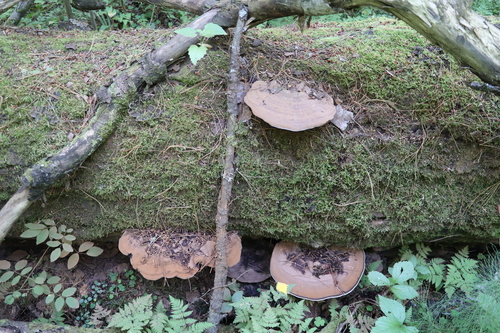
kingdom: Fungi
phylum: Basidiomycota
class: Agaricomycetes
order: Polyporales
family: Polyporaceae
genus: Ganoderma
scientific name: Ganoderma applanatum
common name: Artist's bracket
